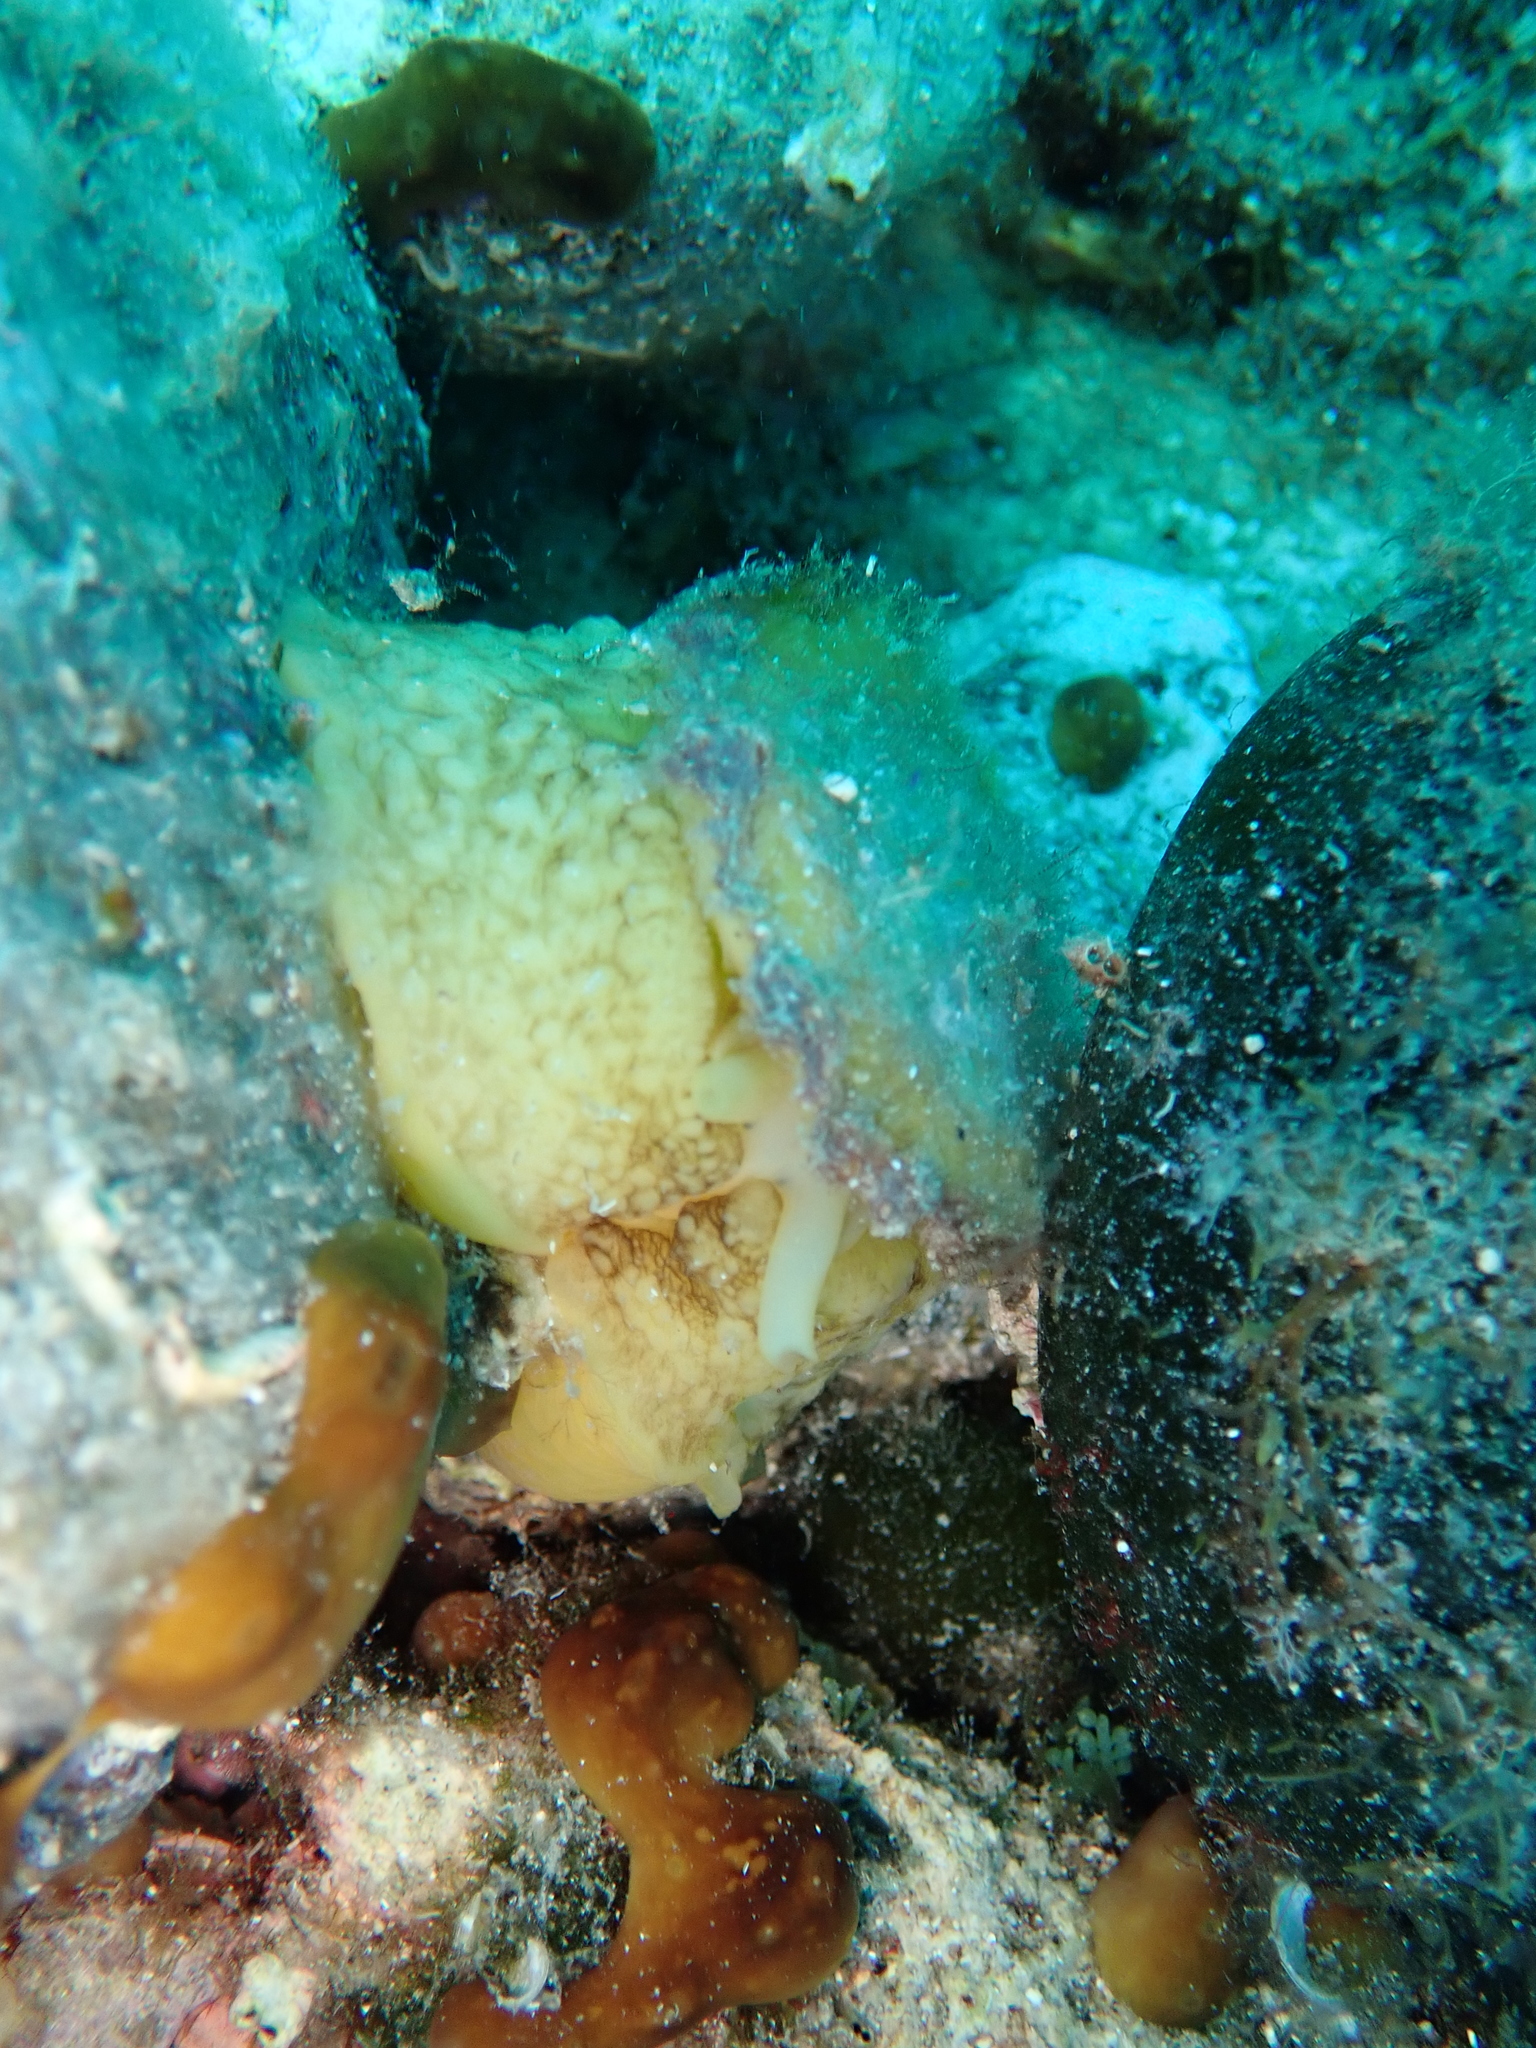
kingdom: Animalia
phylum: Mollusca
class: Gastropoda
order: Umbraculida
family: Umbraculidae
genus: Umbraculum
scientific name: Umbraculum umbraculum
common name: Atlantic umbrella slug
